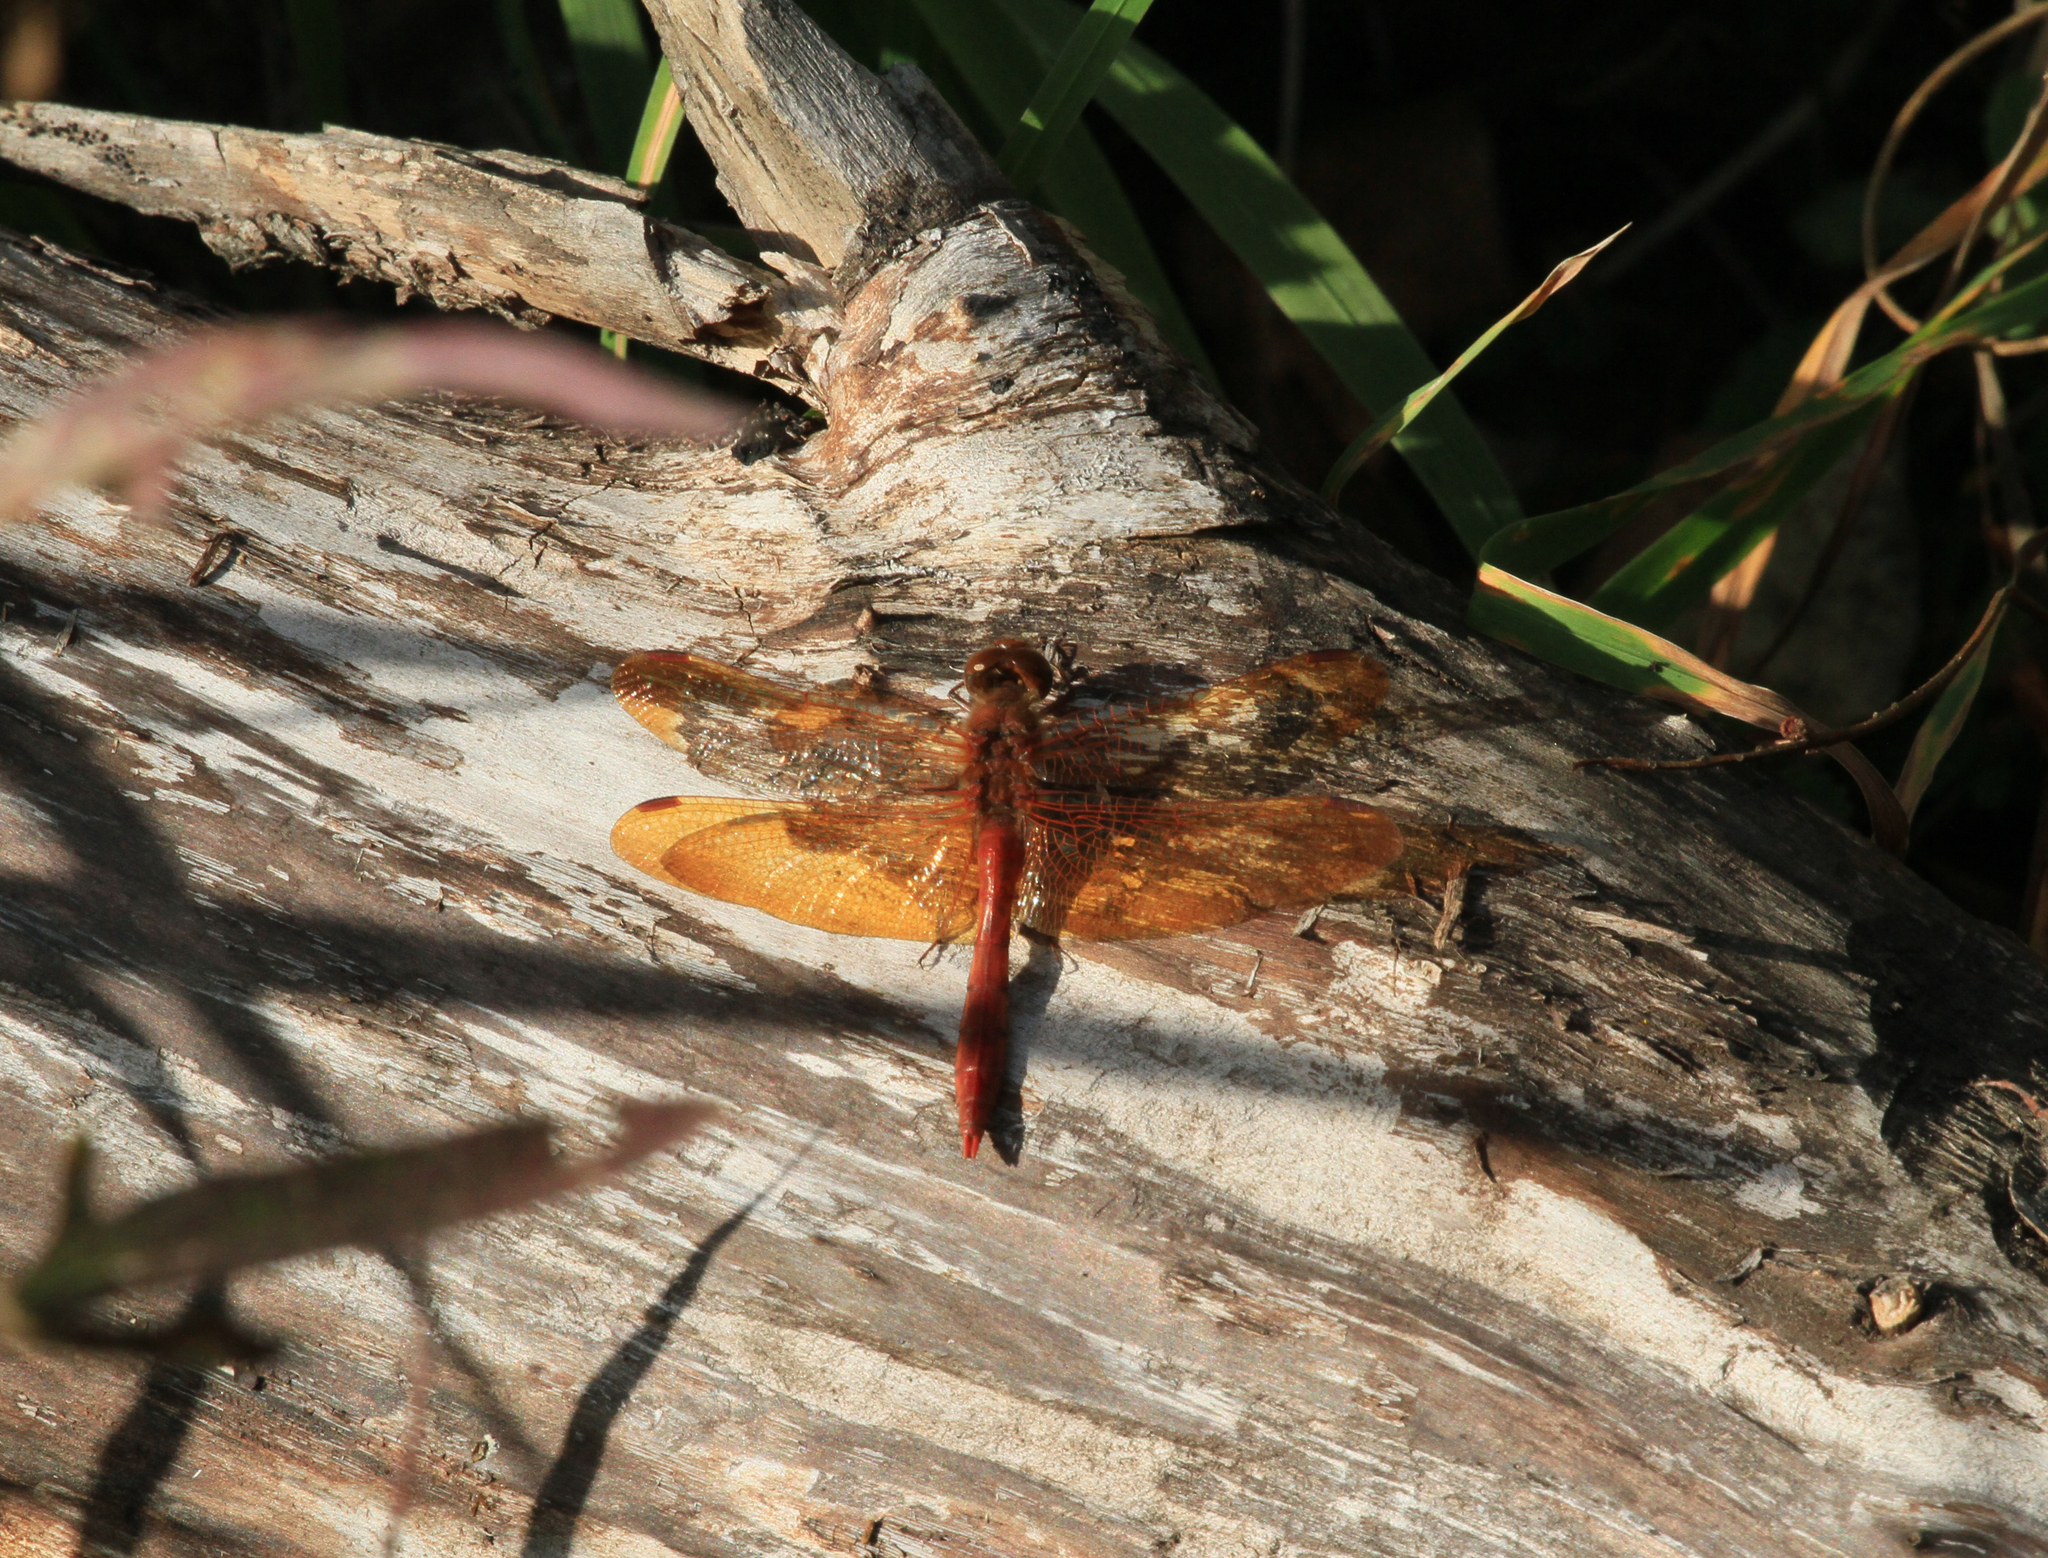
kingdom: Animalia
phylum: Arthropoda
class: Insecta
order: Odonata
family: Libellulidae
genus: Sympetrum
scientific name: Sympetrum croceolum
